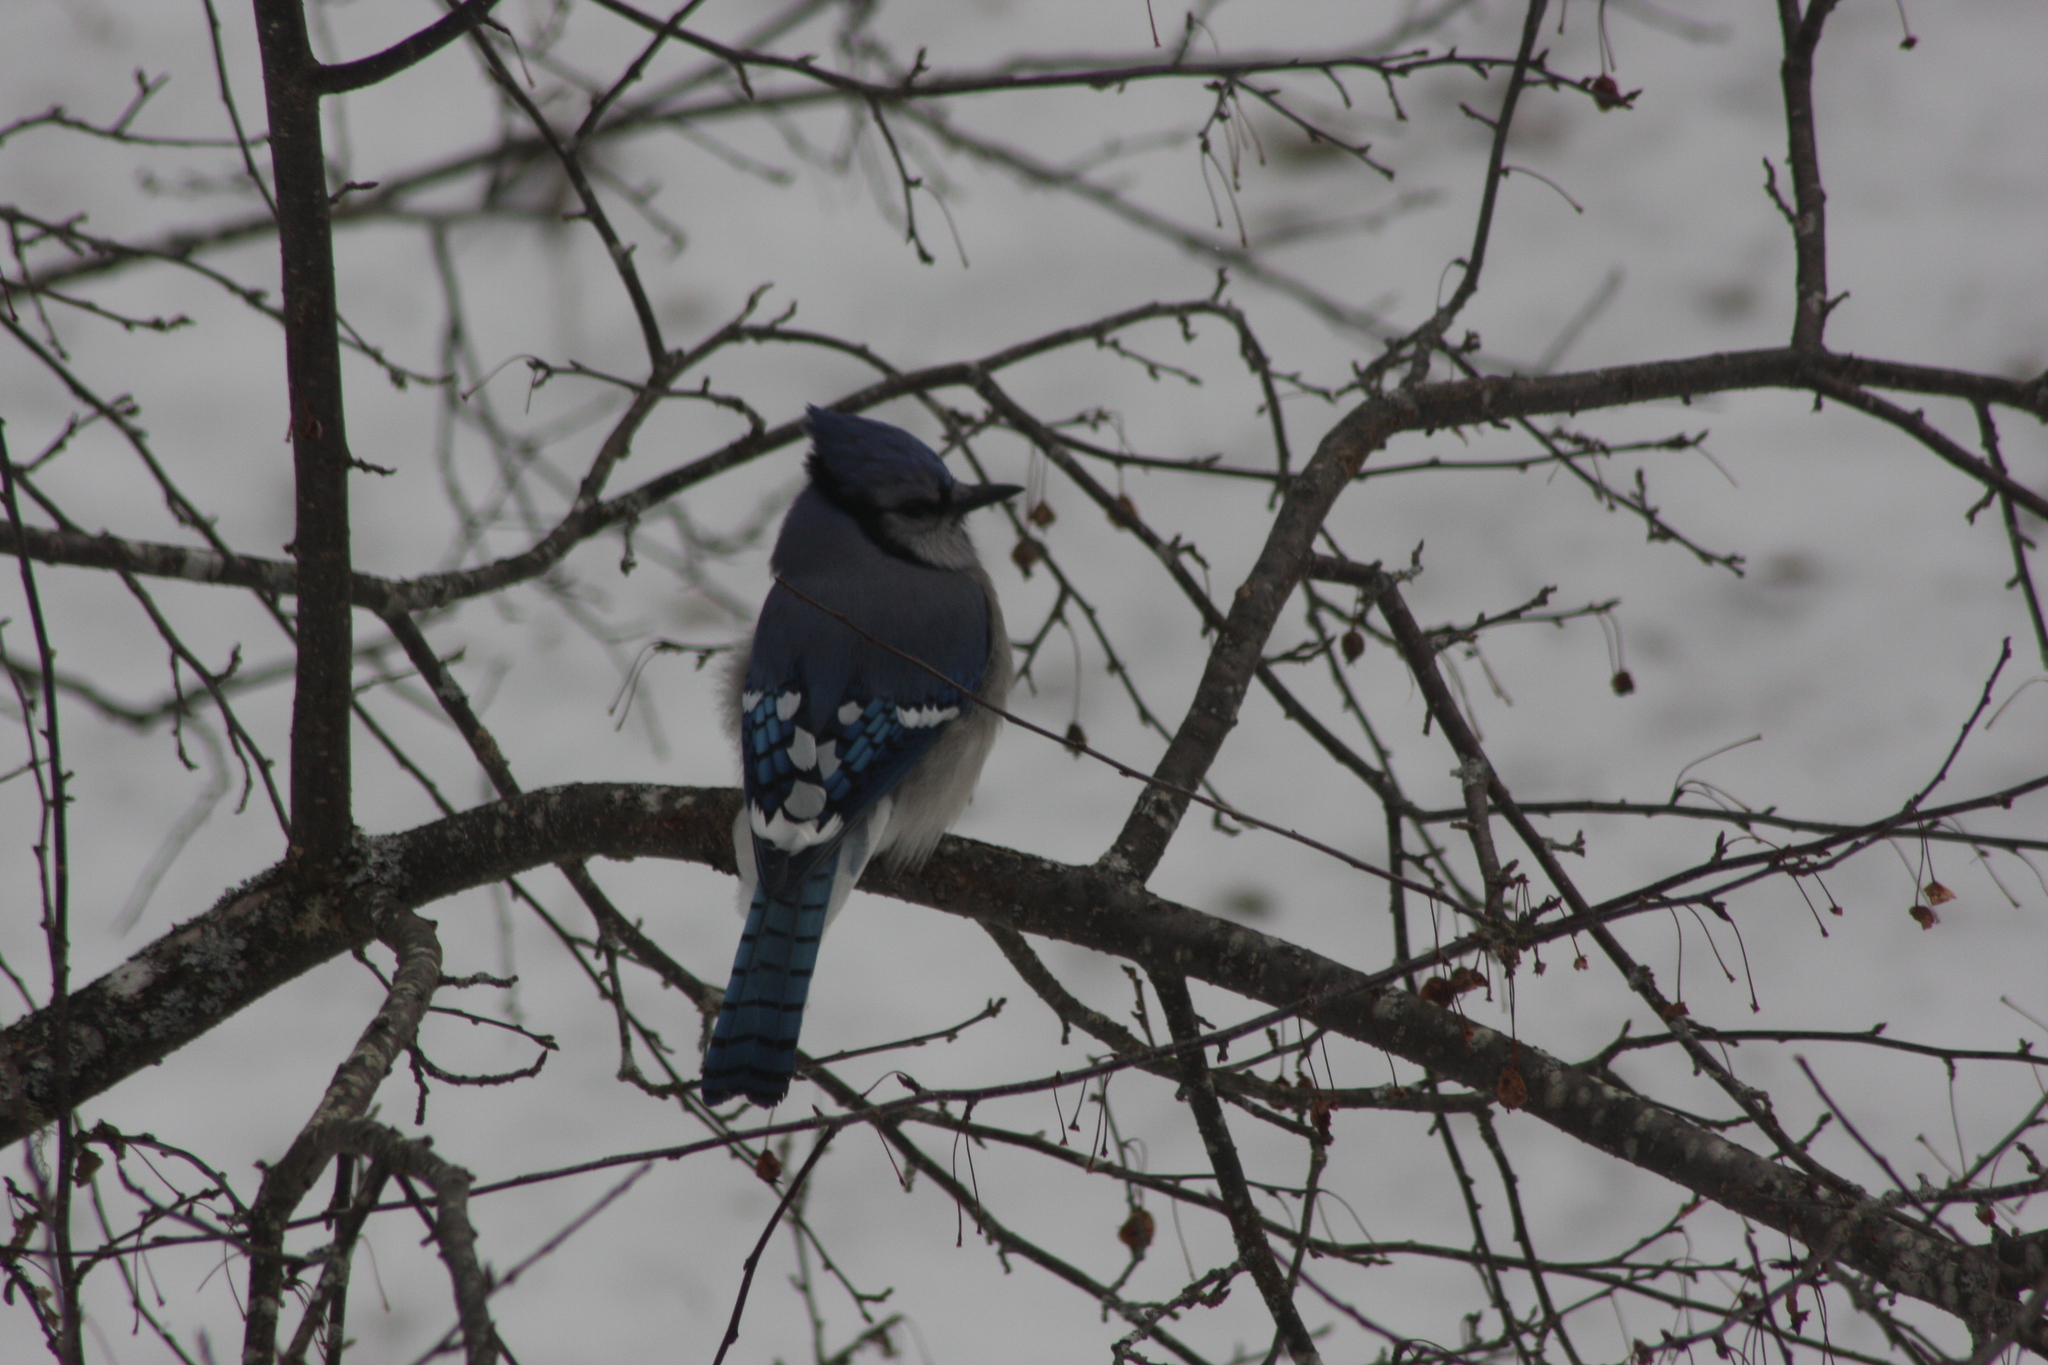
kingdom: Animalia
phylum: Chordata
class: Aves
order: Passeriformes
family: Corvidae
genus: Cyanocitta
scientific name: Cyanocitta cristata
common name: Blue jay
